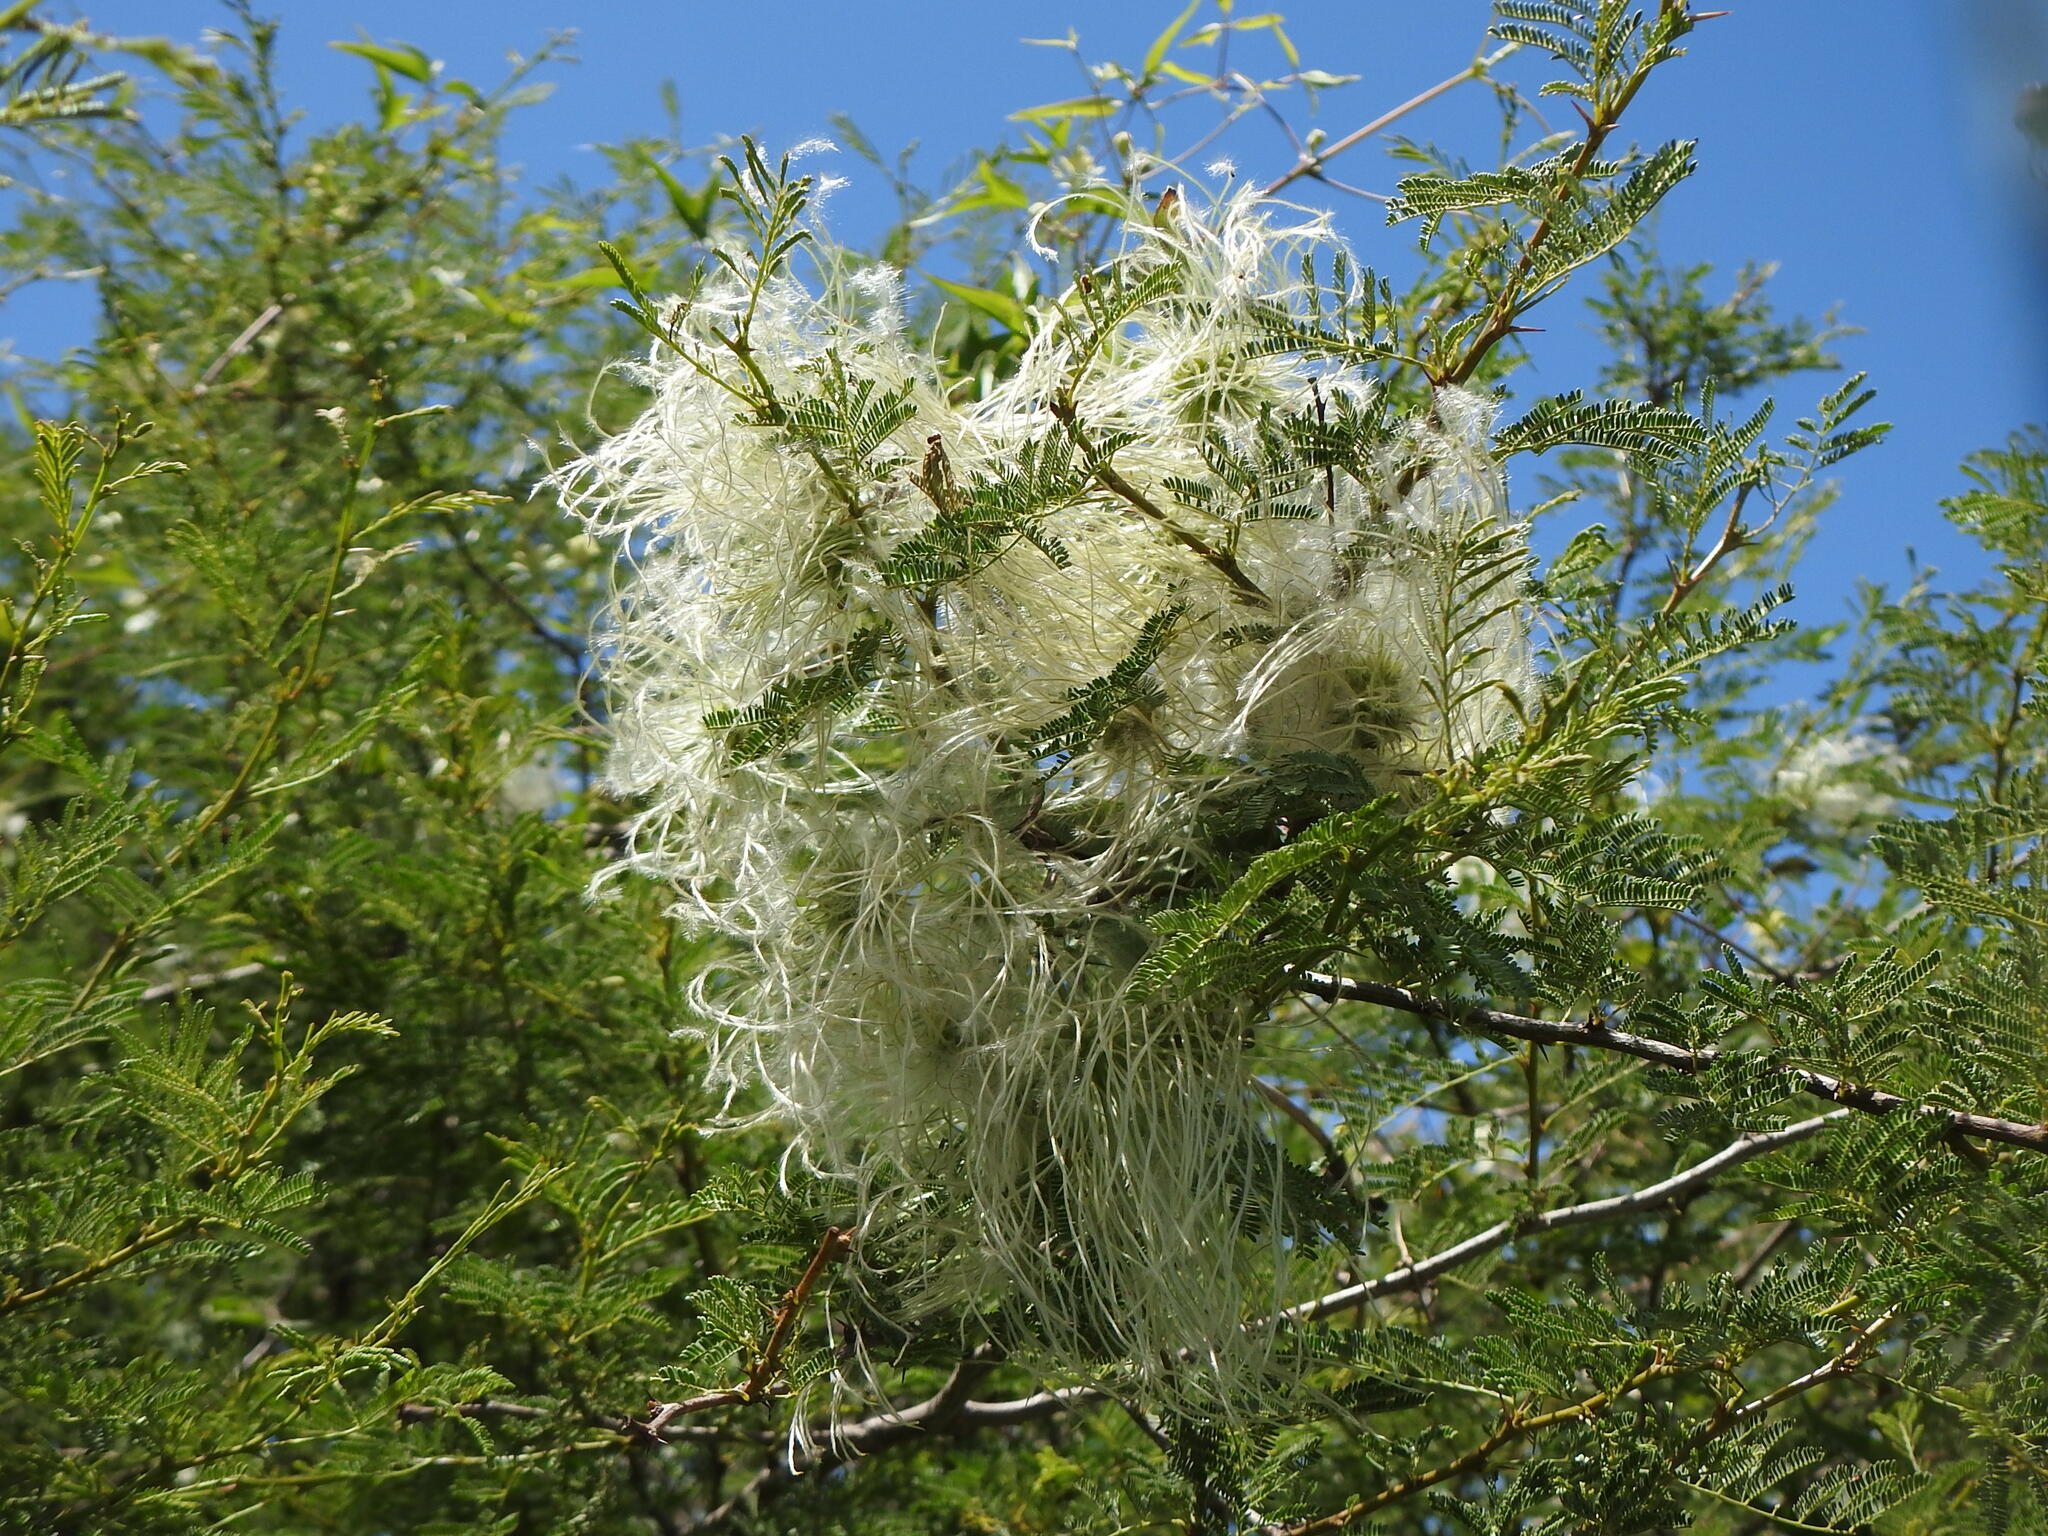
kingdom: Plantae
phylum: Tracheophyta
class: Magnoliopsida
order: Ranunculales
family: Ranunculaceae
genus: Clematis
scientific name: Clematis montevidensis
